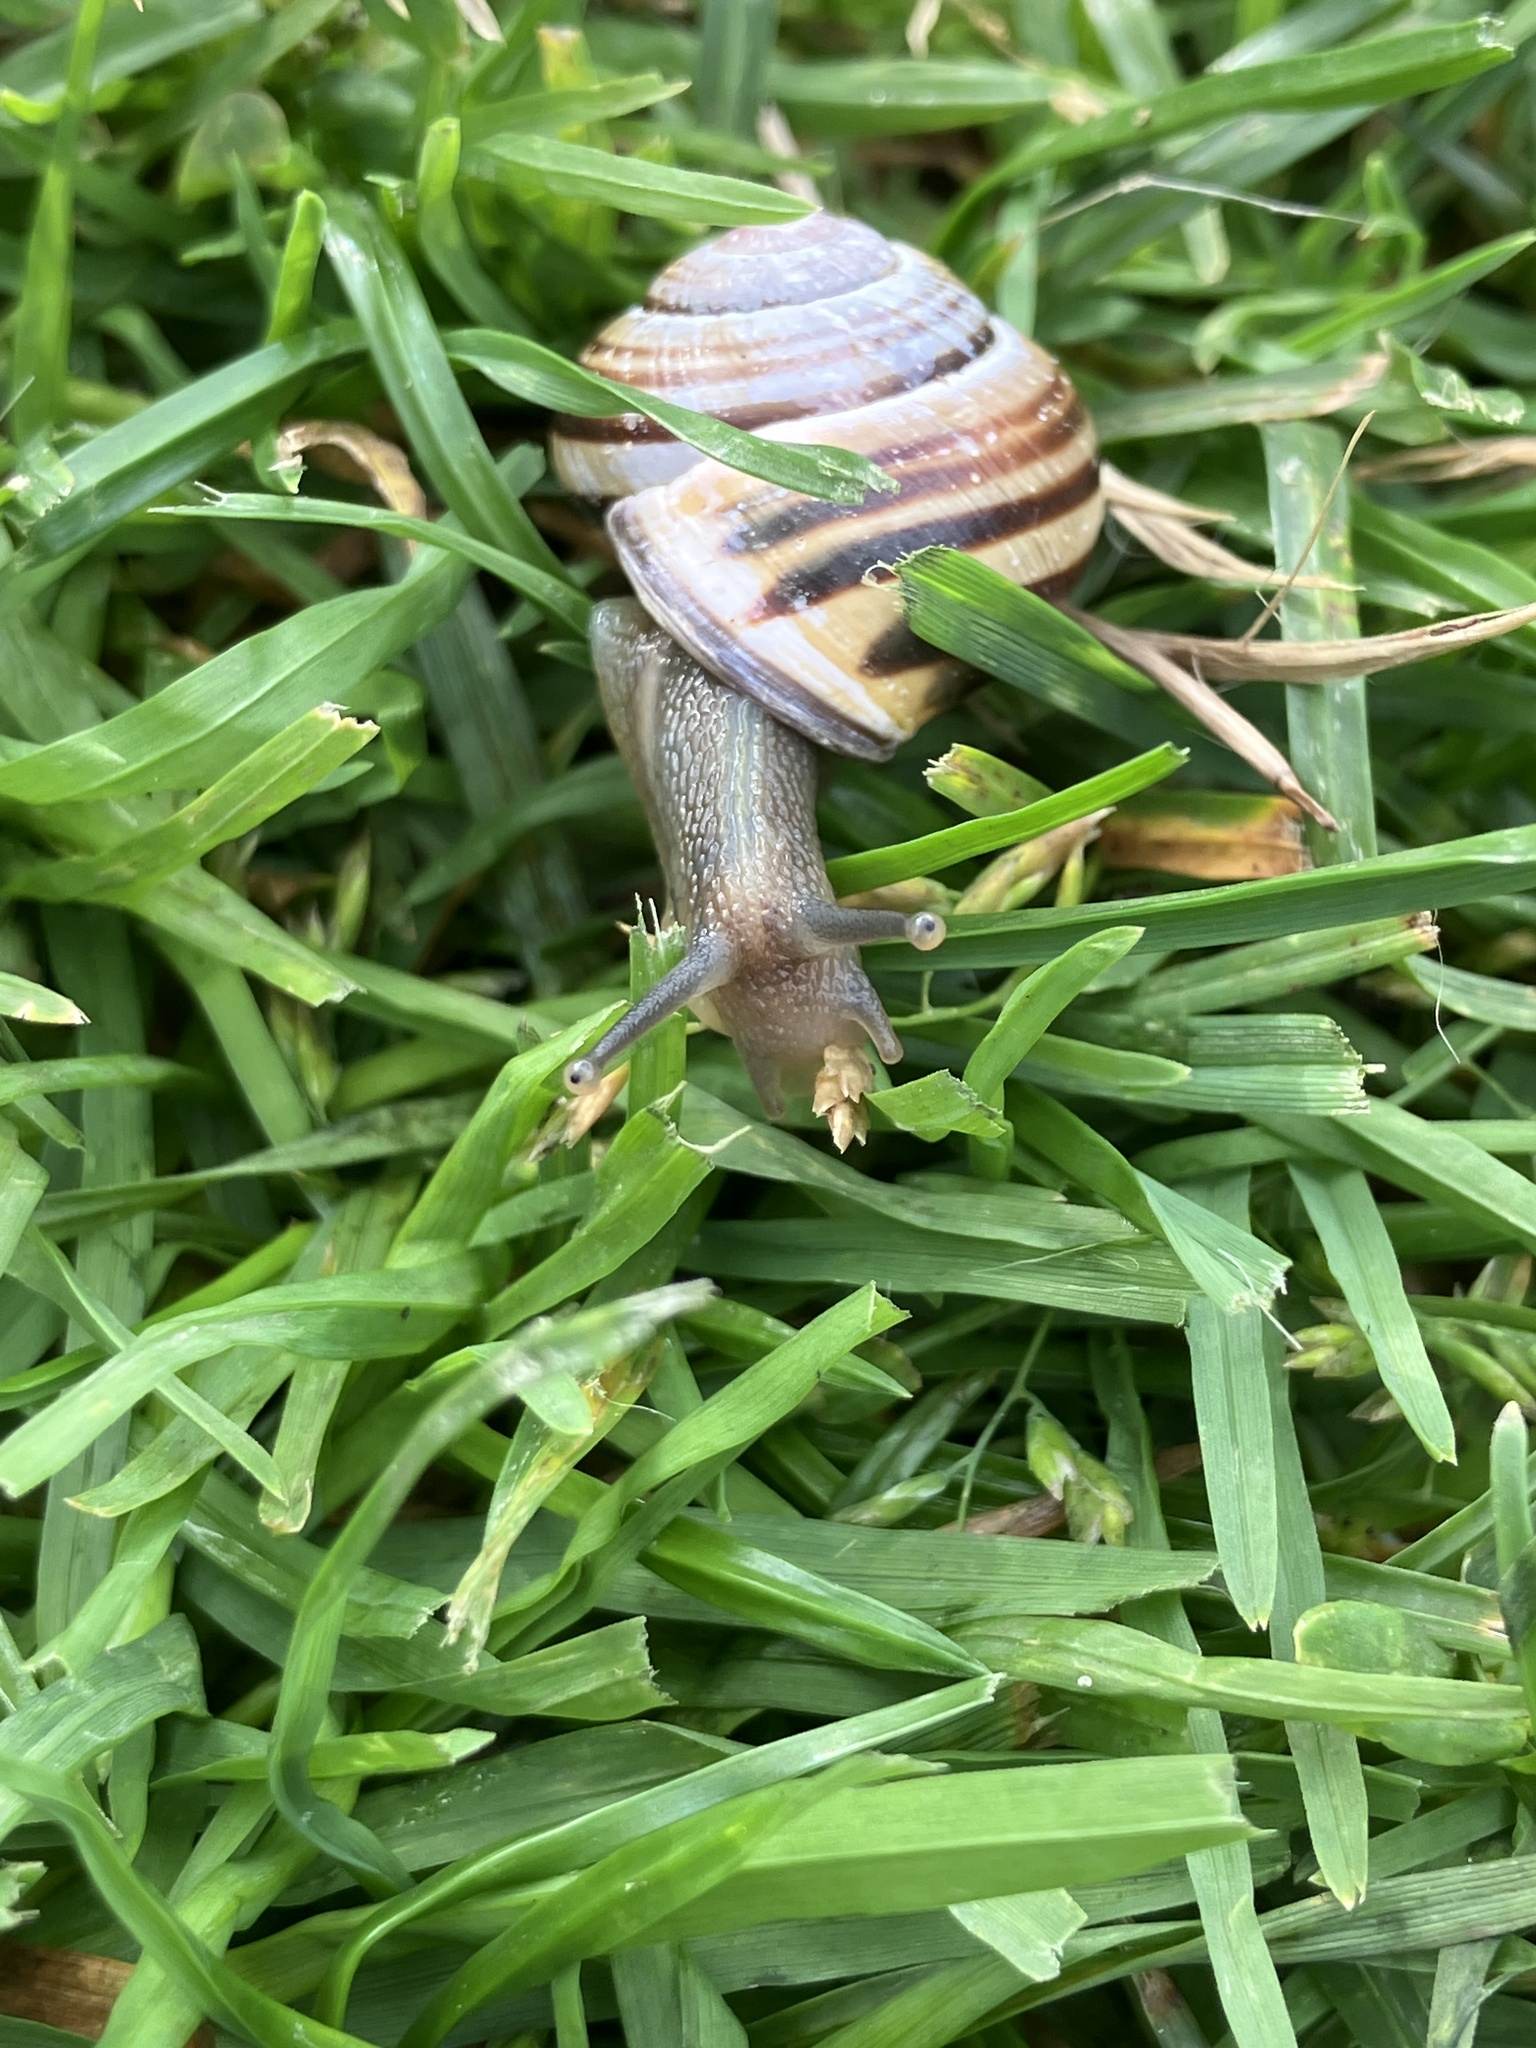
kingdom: Animalia
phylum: Mollusca
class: Gastropoda
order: Stylommatophora
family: Helicidae
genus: Cepaea
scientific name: Cepaea nemoralis
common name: Grovesnail
